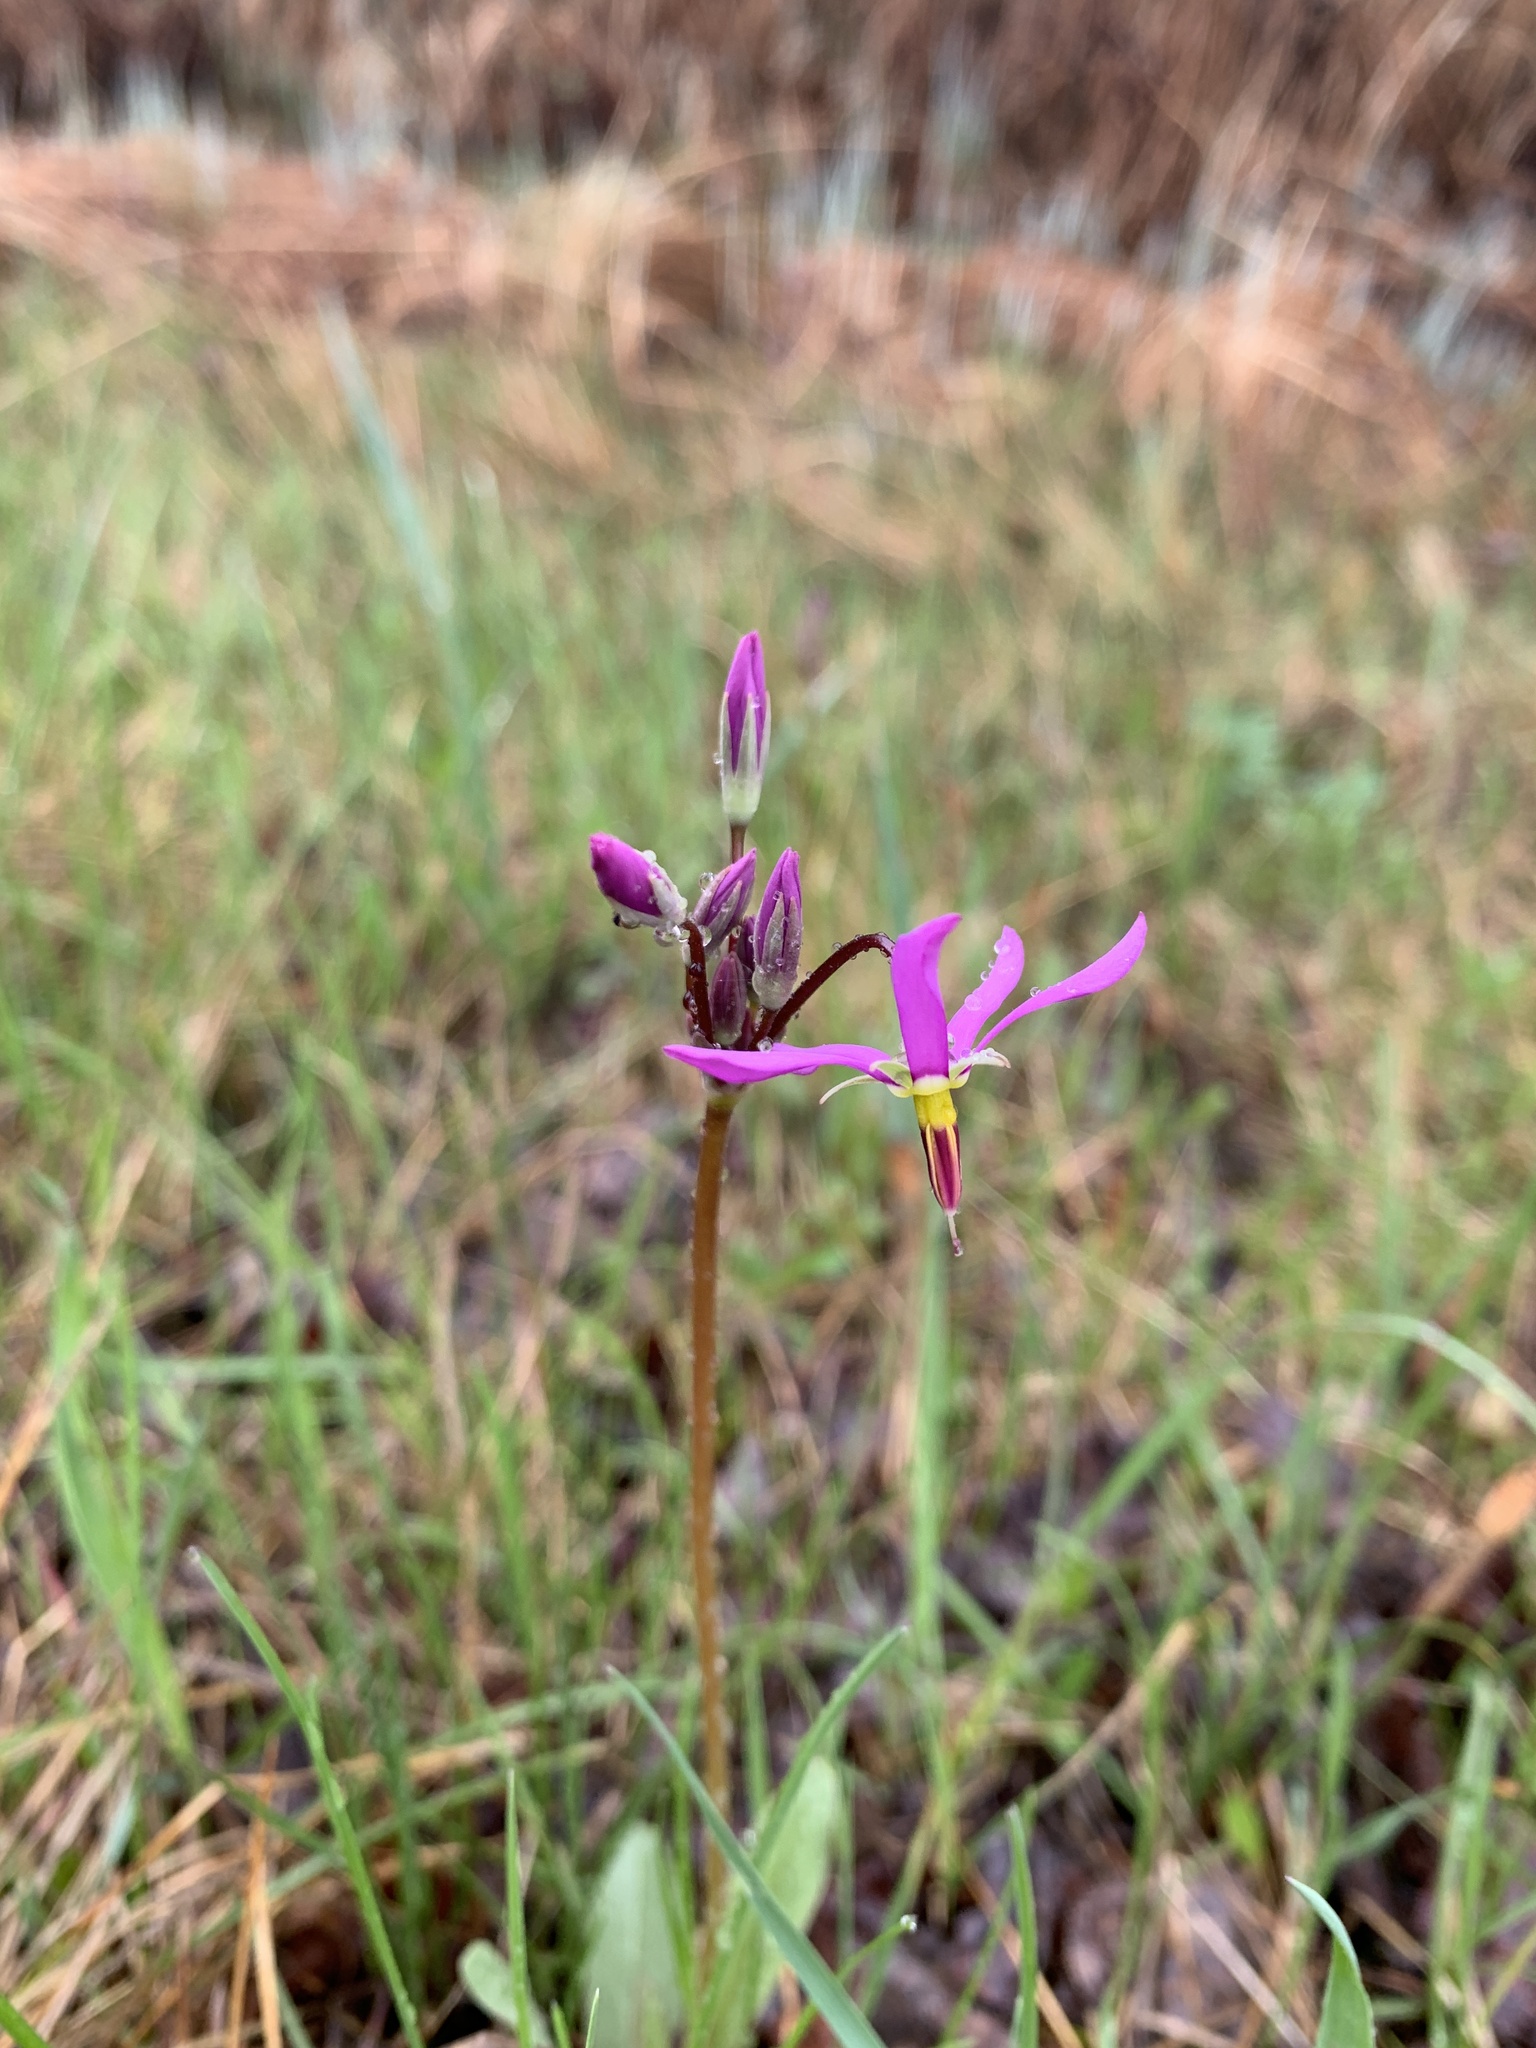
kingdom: Plantae
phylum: Tracheophyta
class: Magnoliopsida
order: Ericales
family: Primulaceae
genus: Dodecatheon
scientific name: Dodecatheon pulchellum
